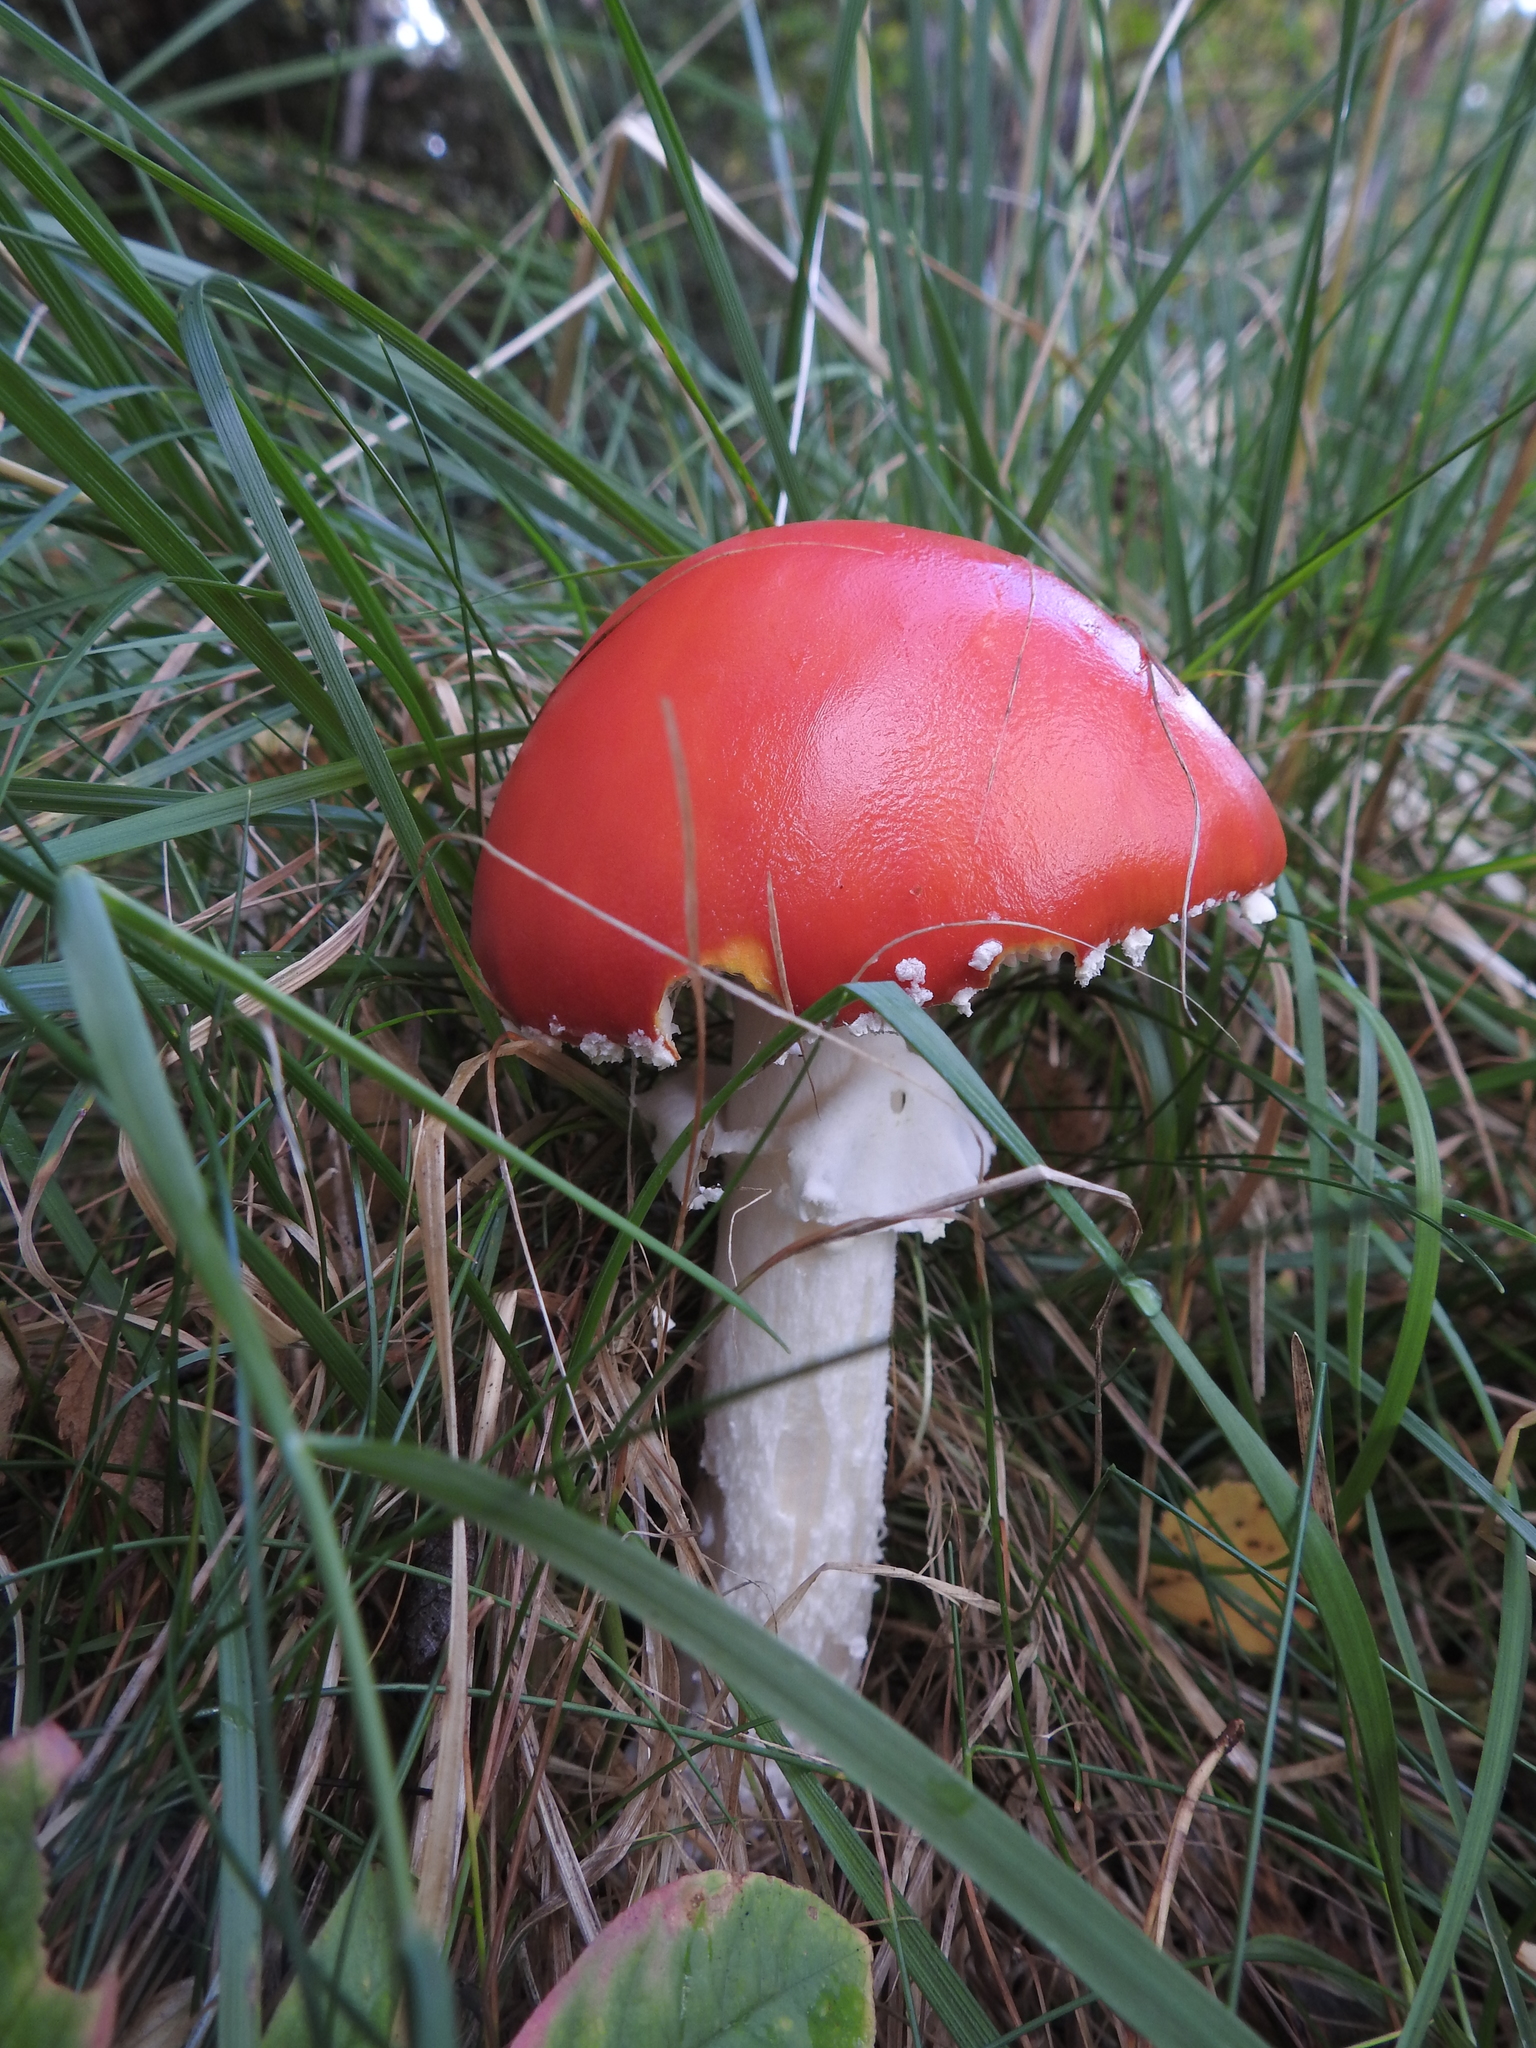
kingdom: Fungi
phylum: Basidiomycota
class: Agaricomycetes
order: Agaricales
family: Amanitaceae
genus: Amanita
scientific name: Amanita muscaria
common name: Fly agaric
